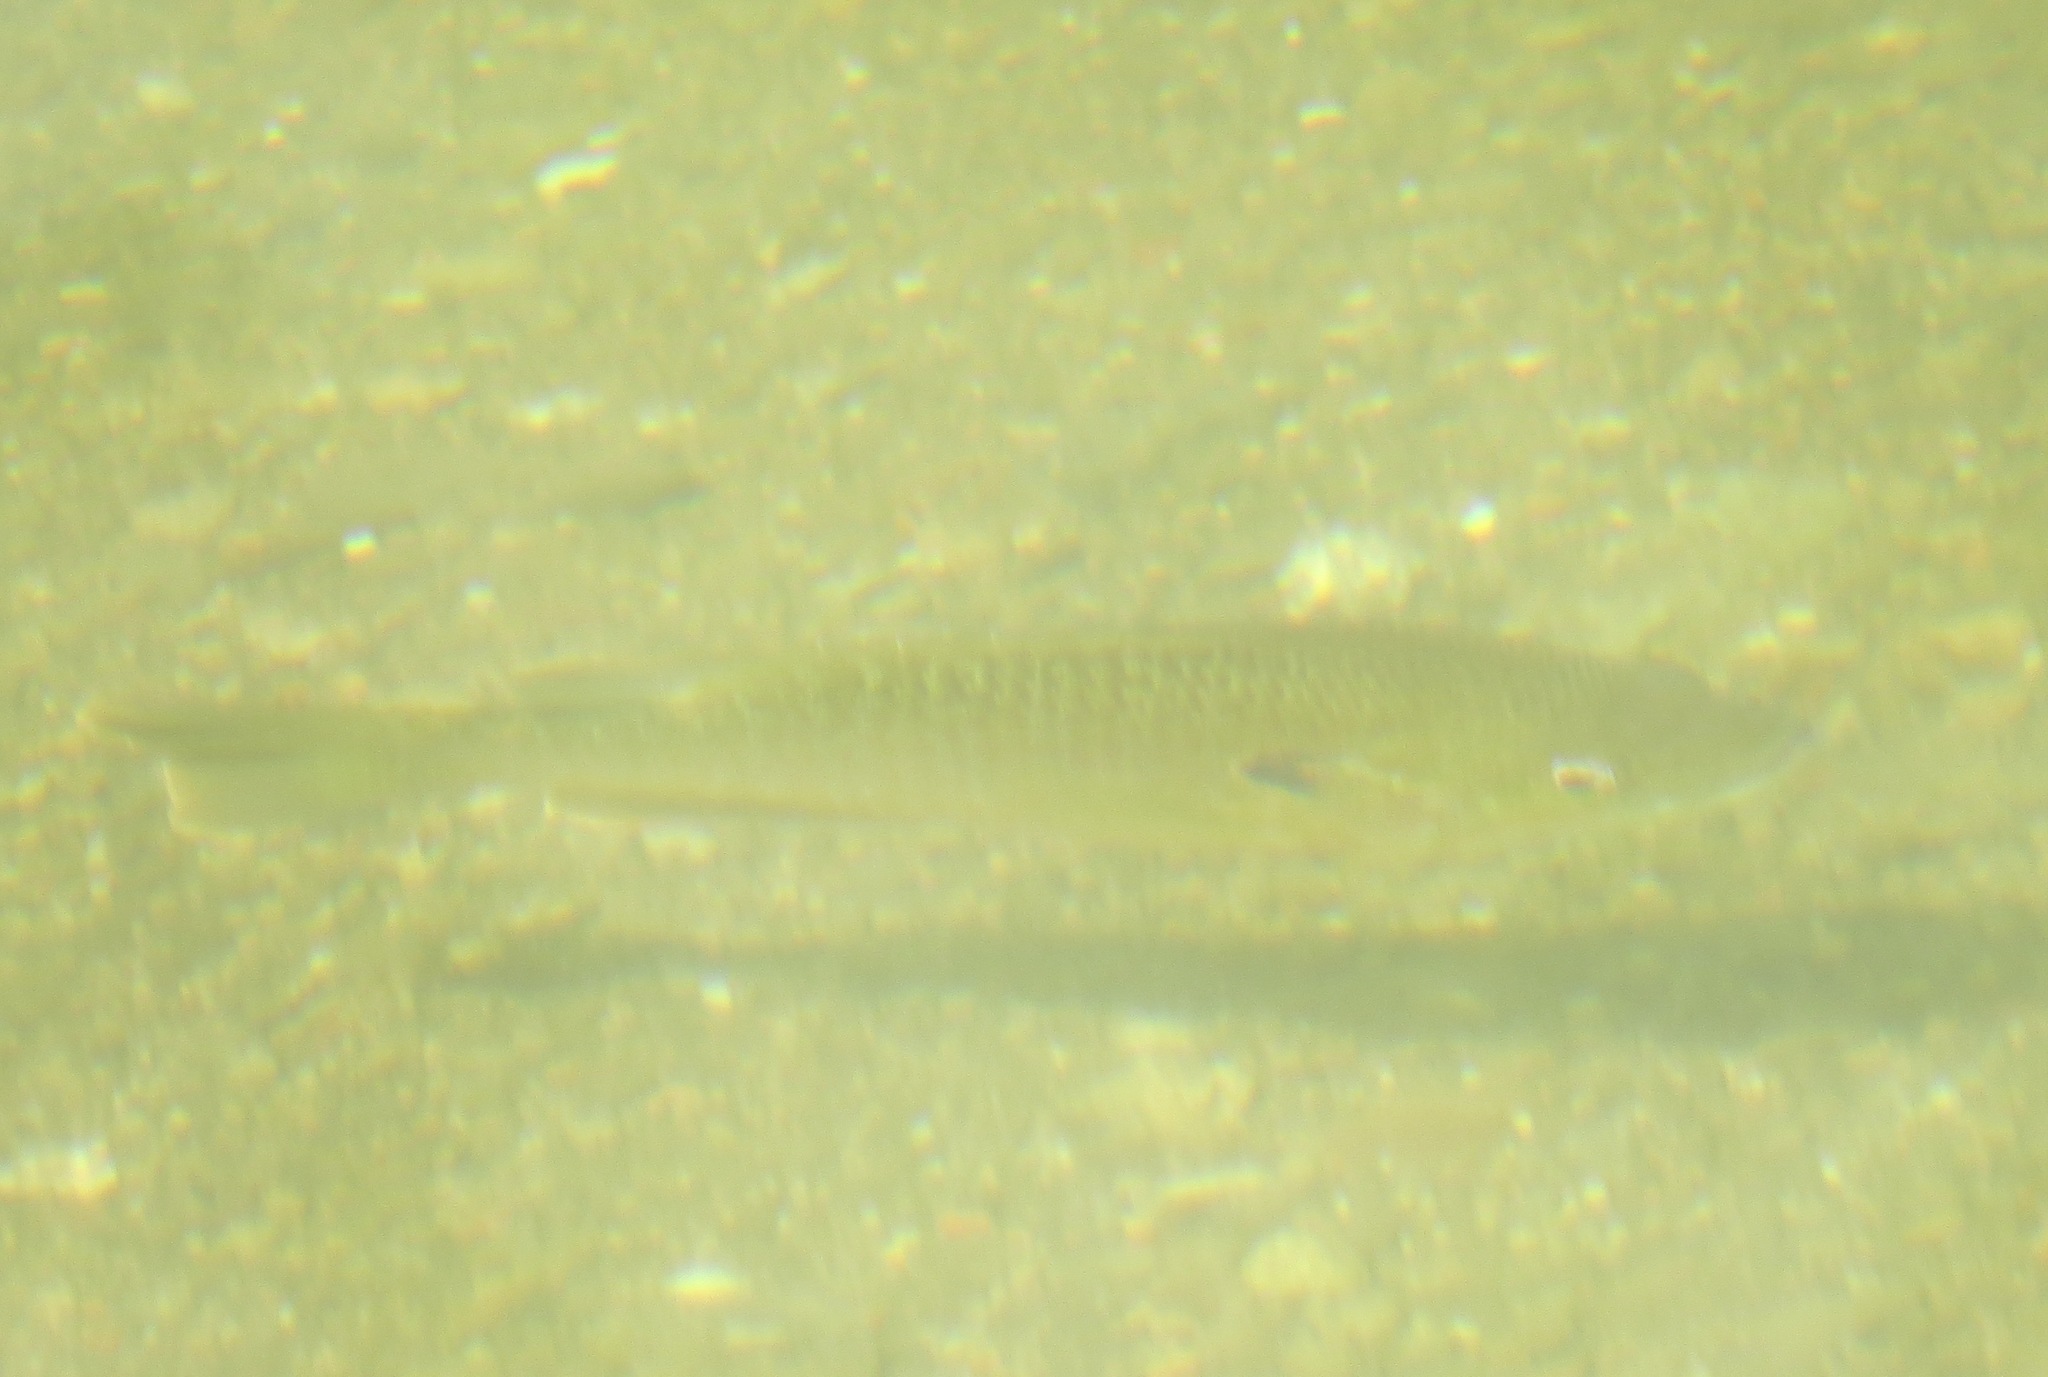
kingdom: Animalia
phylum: Chordata
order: Perciformes
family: Centrarchidae
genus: Lepomis
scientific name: Lepomis cyanellus
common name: Green sunfish
